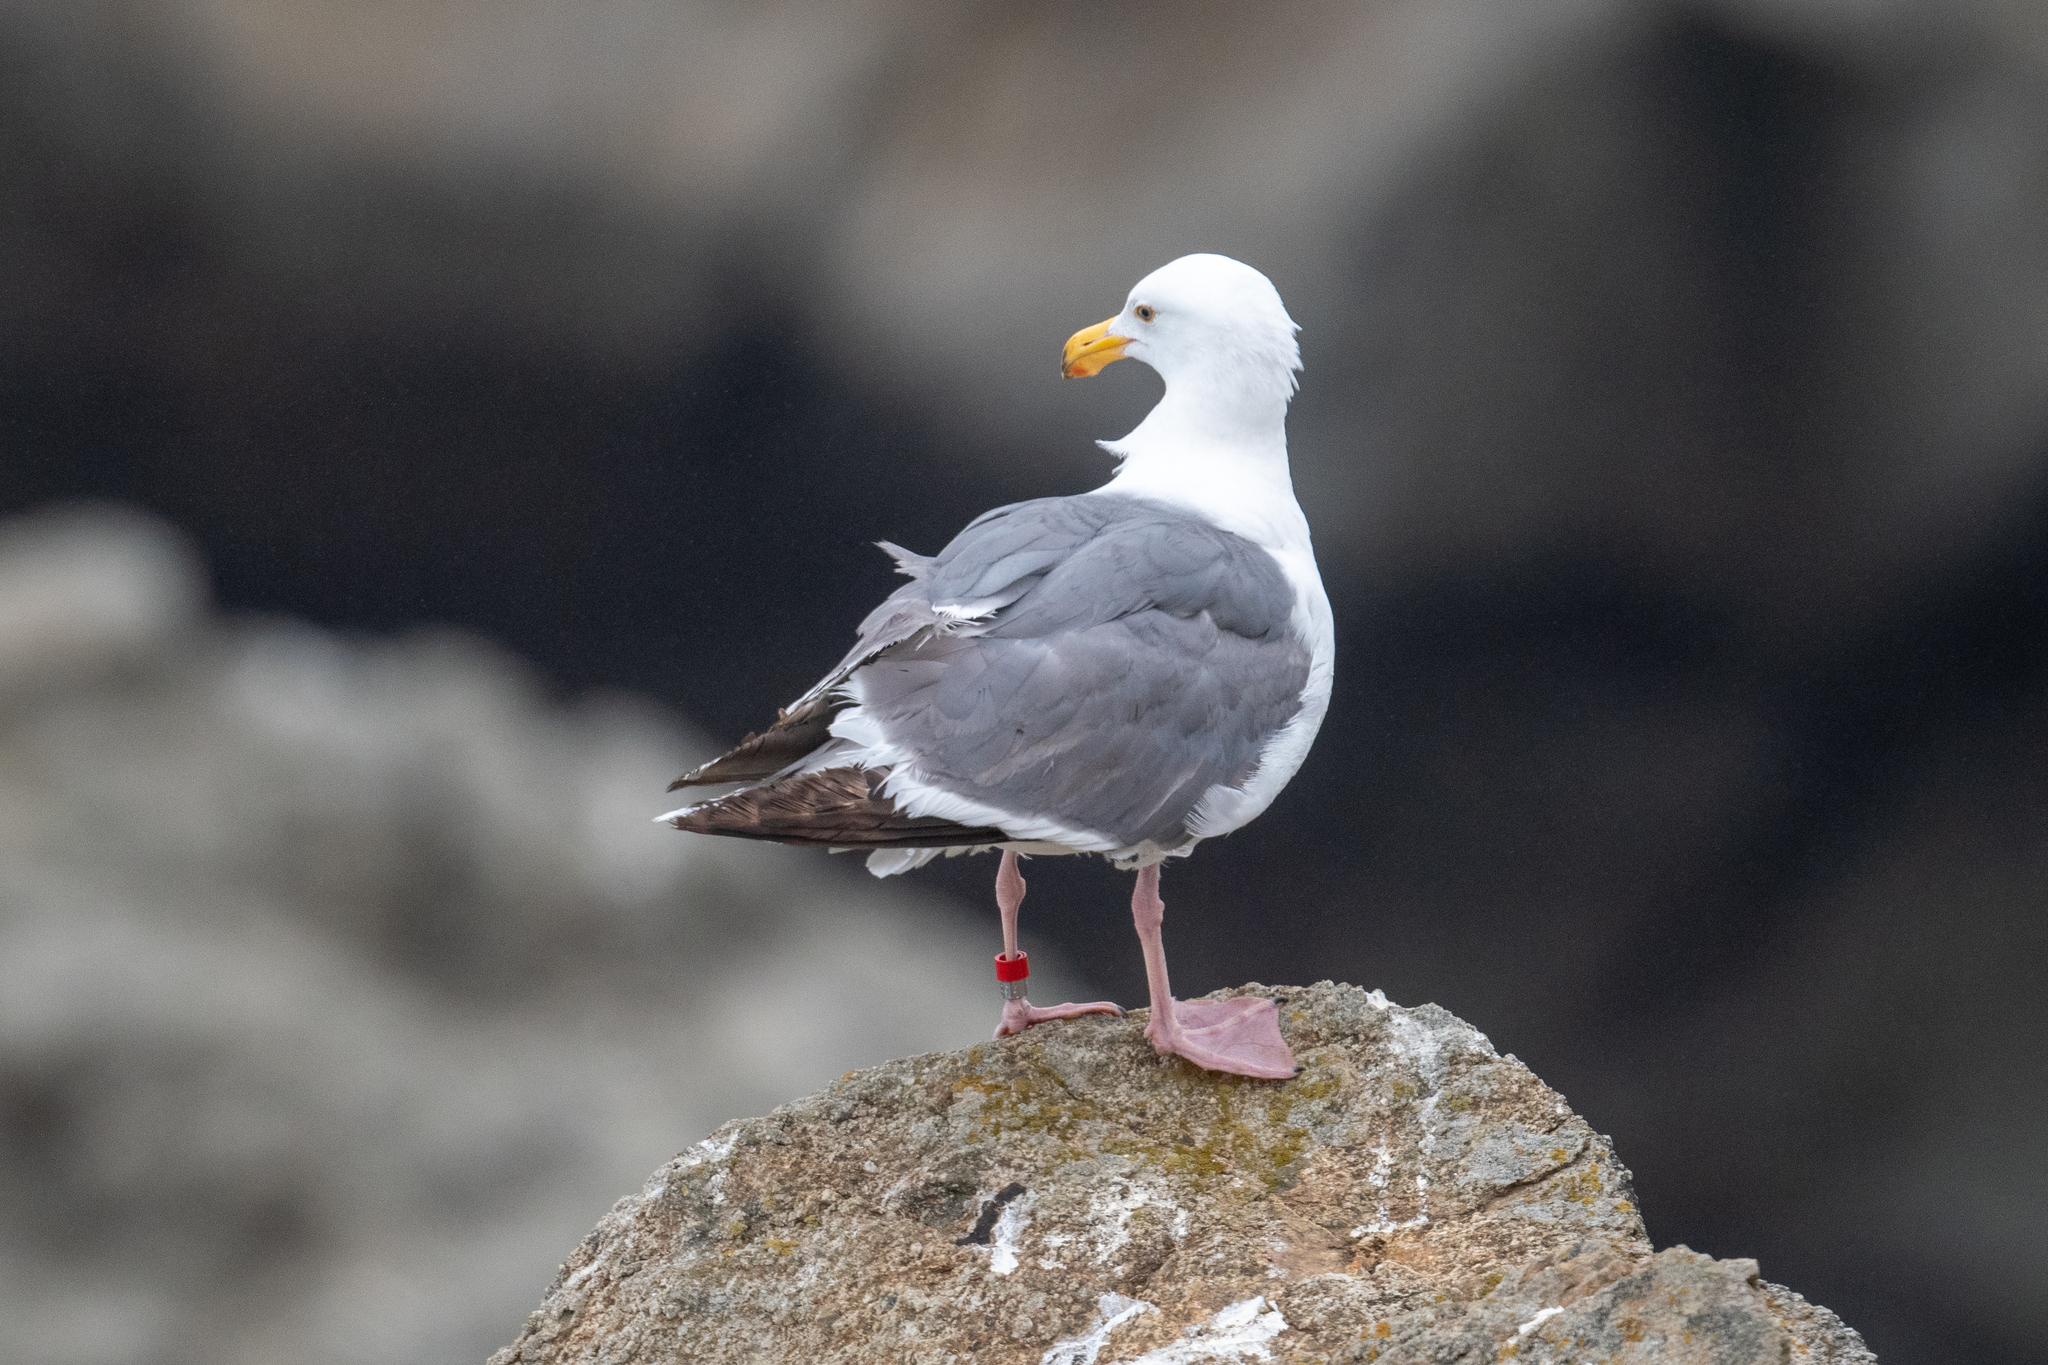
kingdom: Animalia
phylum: Chordata
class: Aves
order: Charadriiformes
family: Laridae
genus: Larus
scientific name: Larus occidentalis
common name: Western gull
